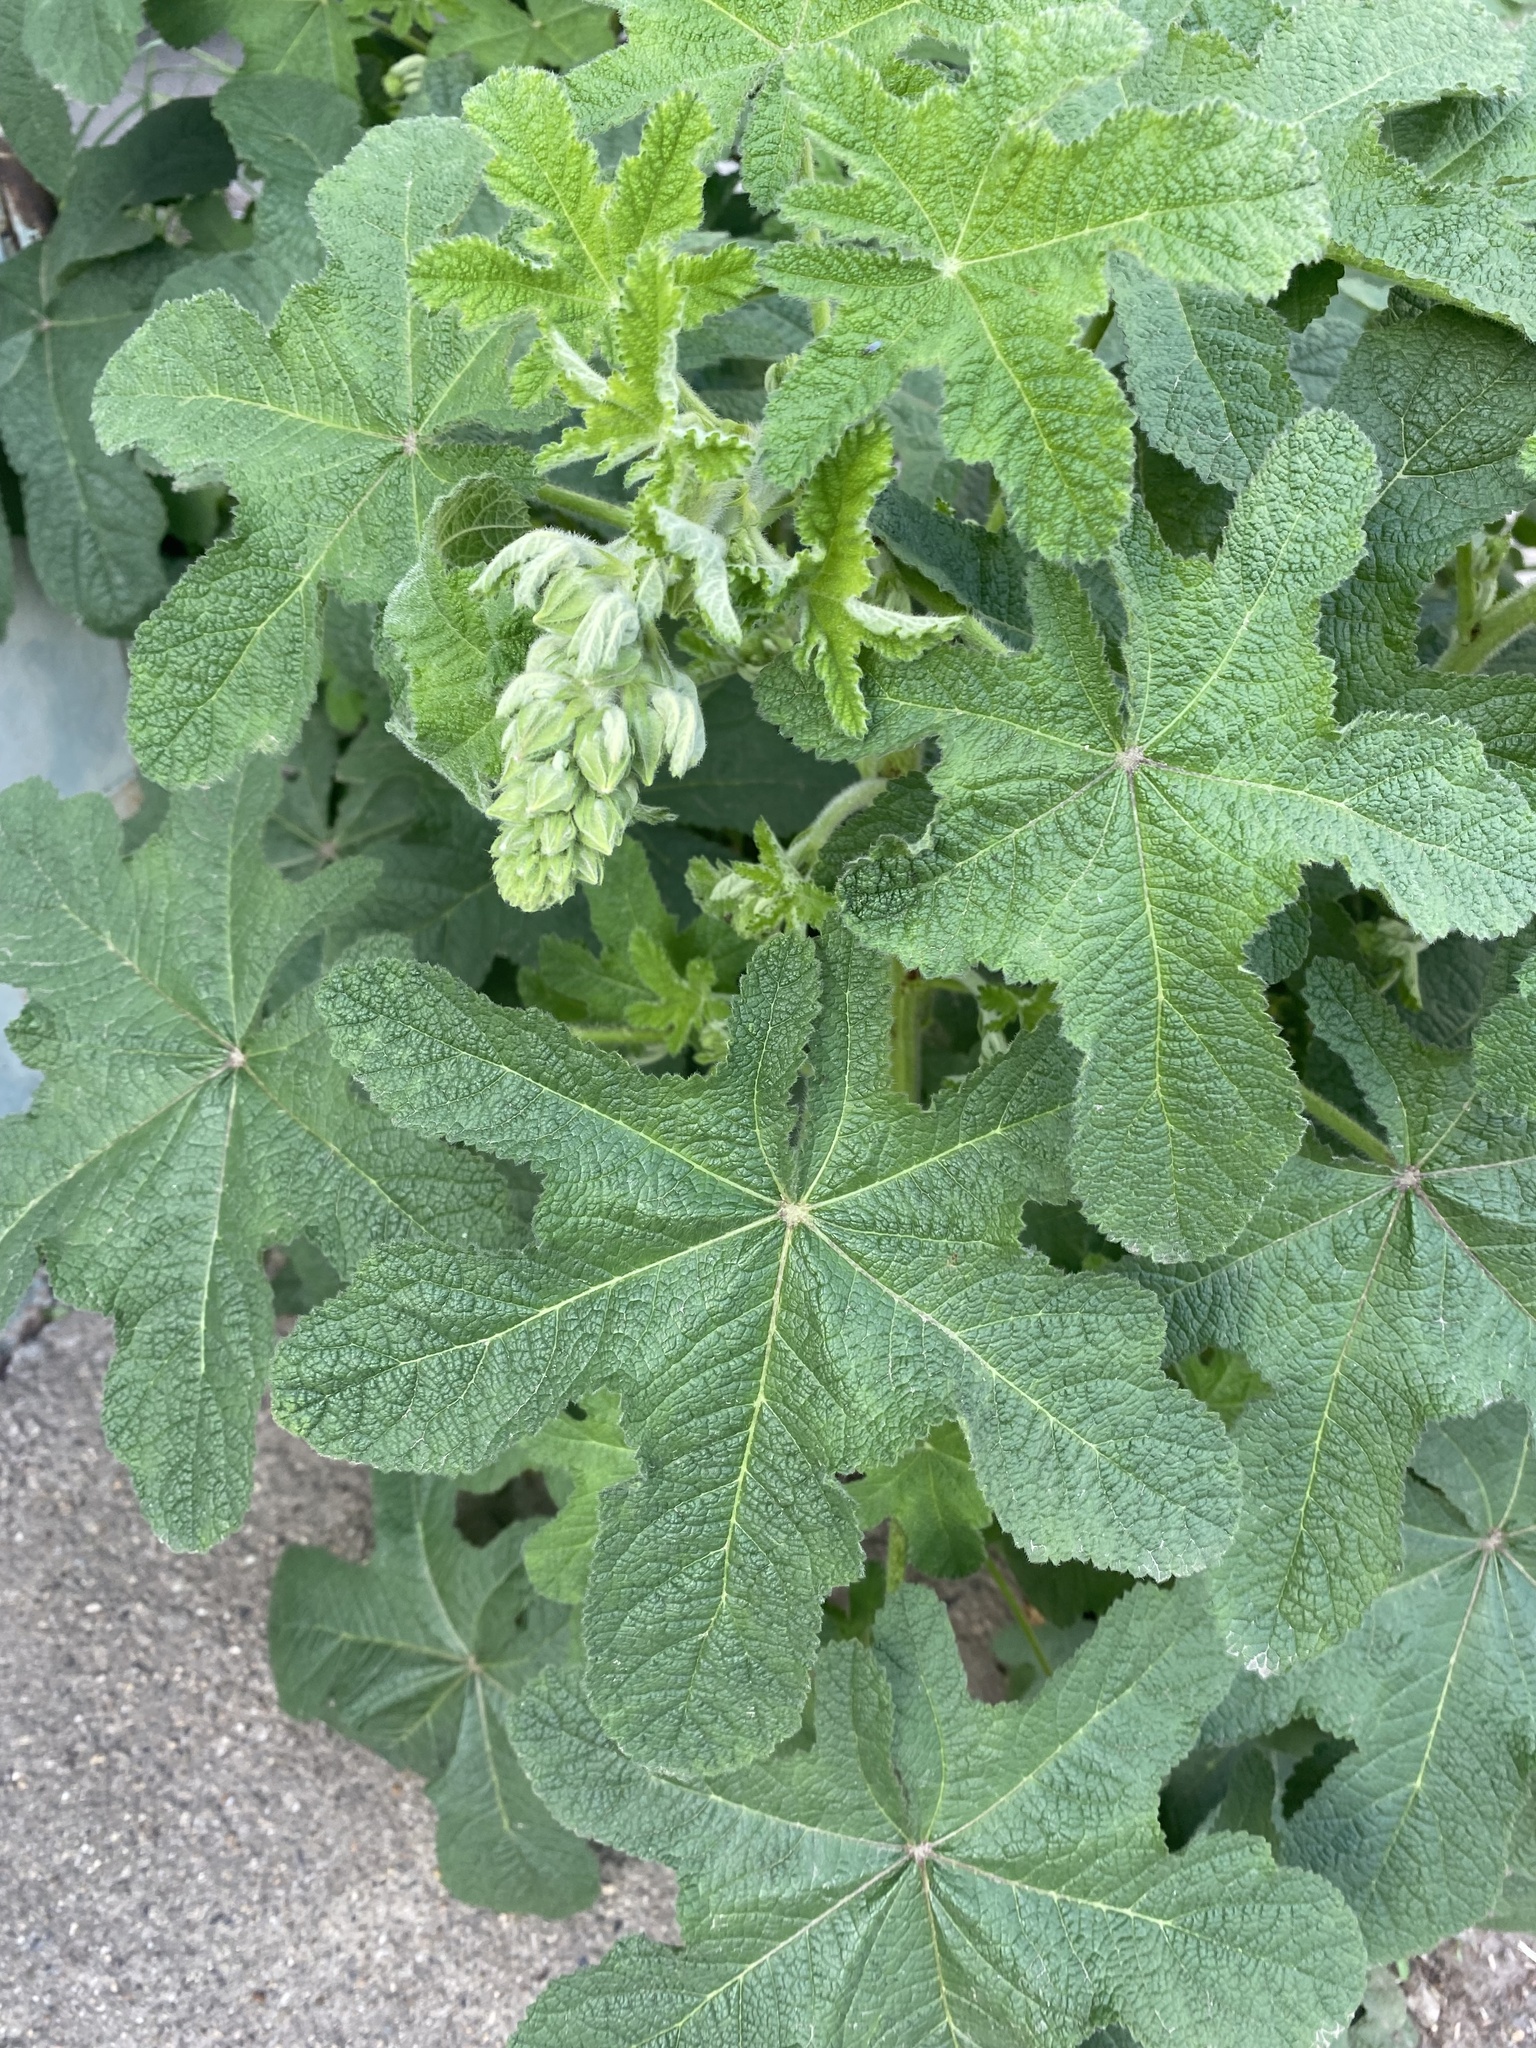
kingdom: Plantae
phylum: Tracheophyta
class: Magnoliopsida
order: Malvales
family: Malvaceae
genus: Alcea
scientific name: Alcea rugosa
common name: Russian hollyhock
